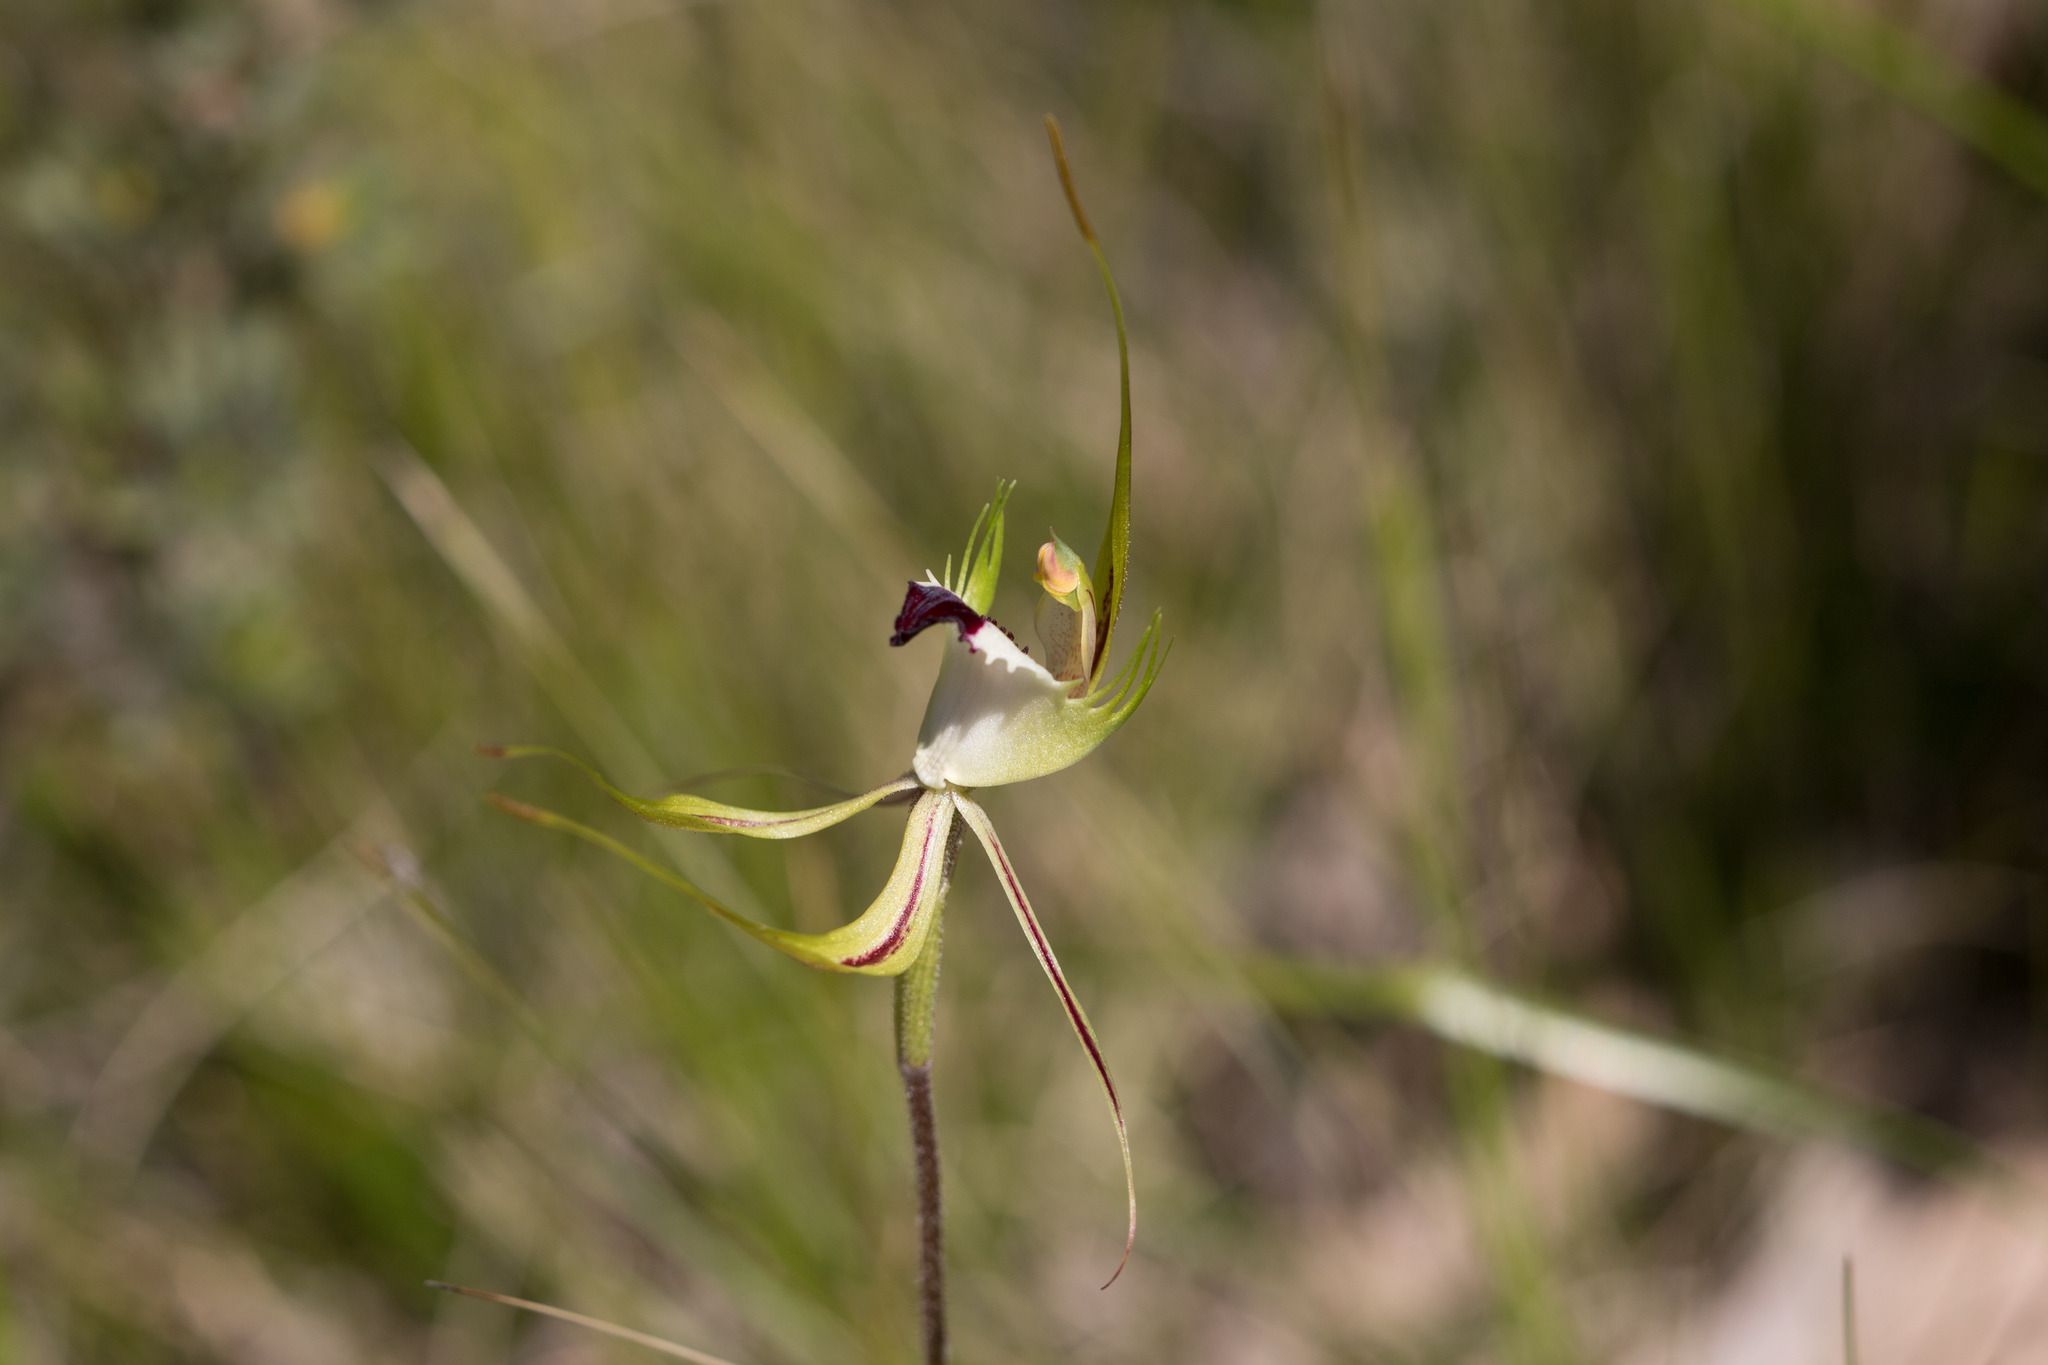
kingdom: Plantae
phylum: Tracheophyta
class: Liliopsida
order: Asparagales
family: Orchidaceae
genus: Caladenia
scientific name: Caladenia tentaculata
